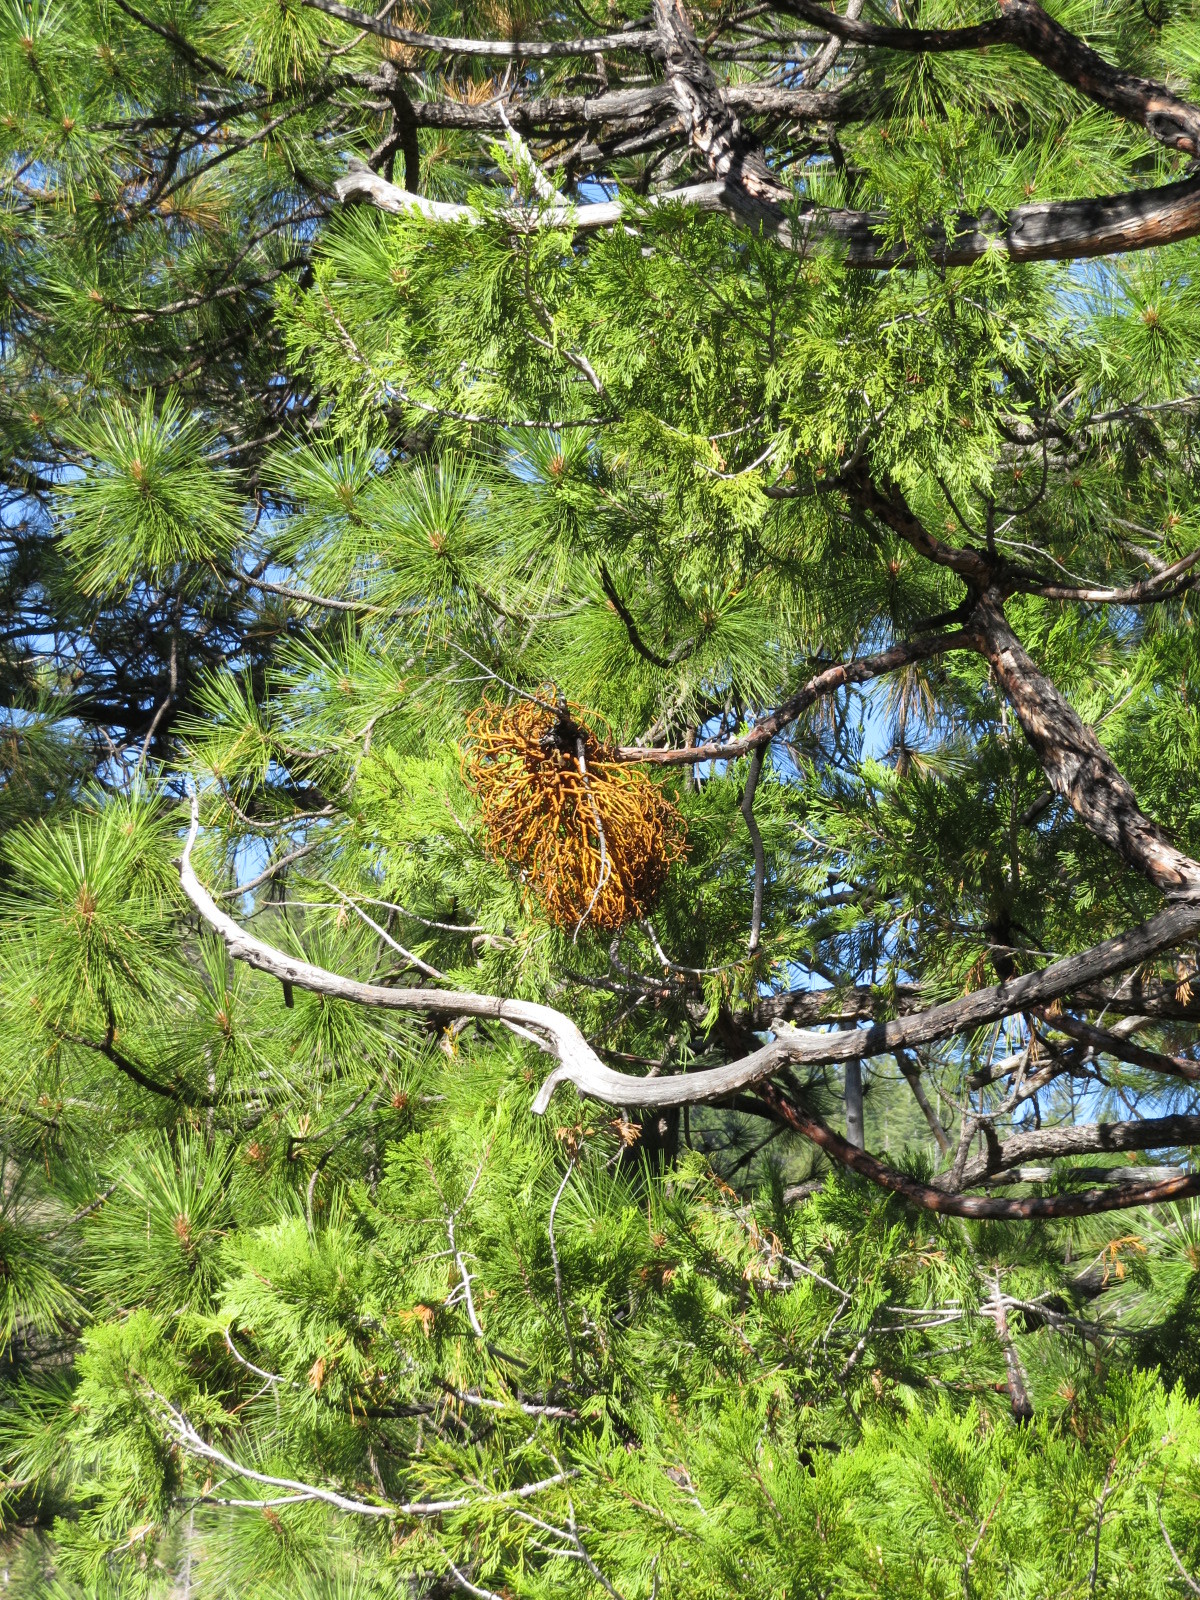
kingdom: Plantae
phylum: Tracheophyta
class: Magnoliopsida
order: Santalales
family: Viscaceae
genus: Phoradendron
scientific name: Phoradendron libocedri
